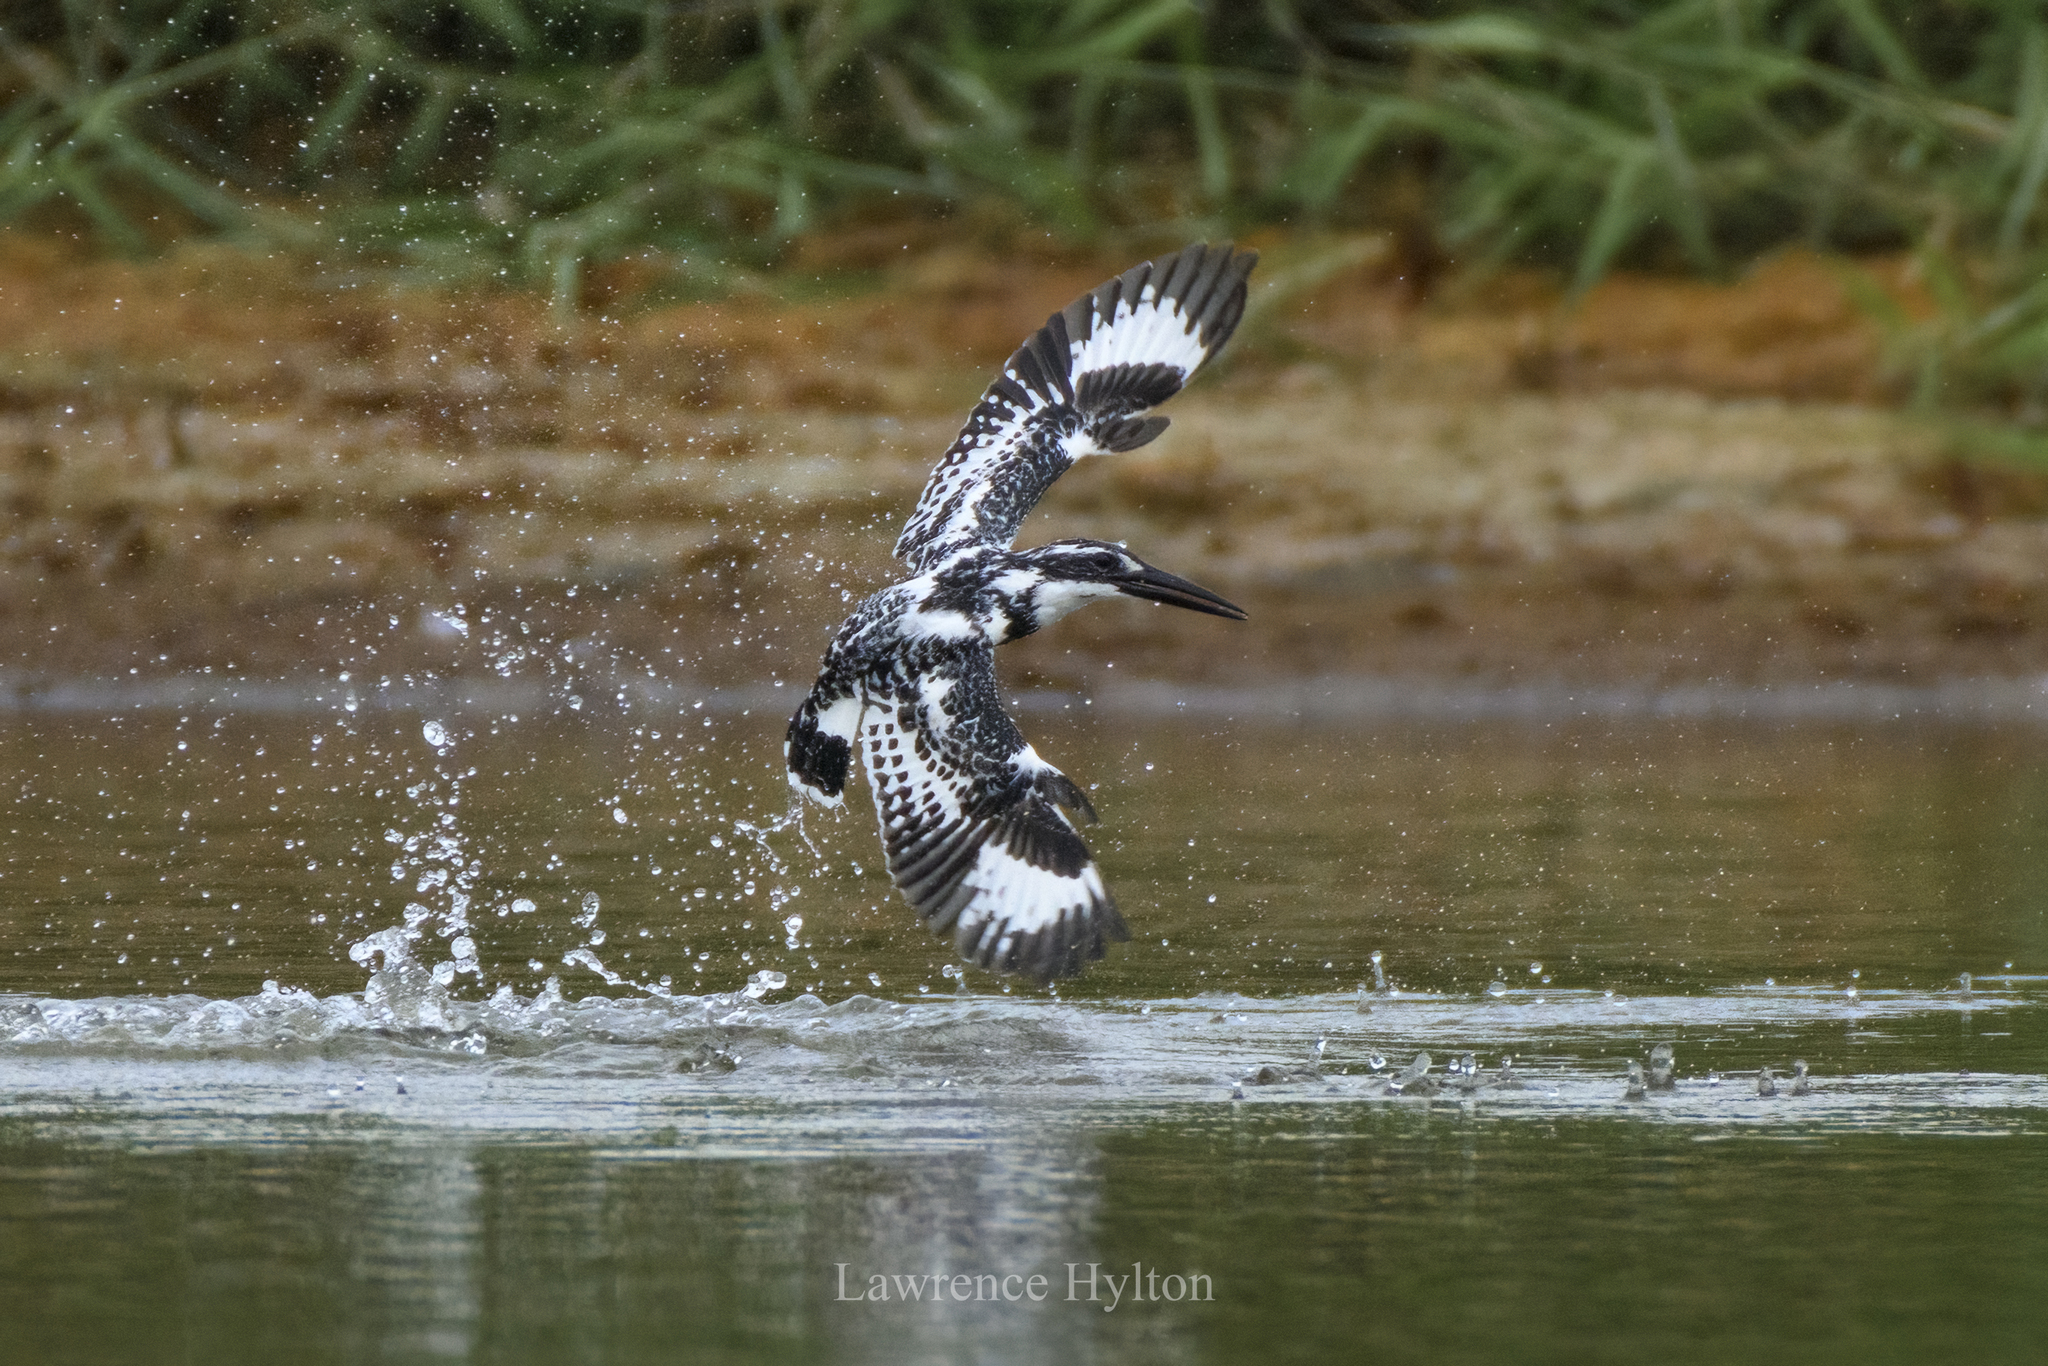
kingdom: Animalia
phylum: Chordata
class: Aves
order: Coraciiformes
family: Alcedinidae
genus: Ceryle
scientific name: Ceryle rudis
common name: Pied kingfisher
